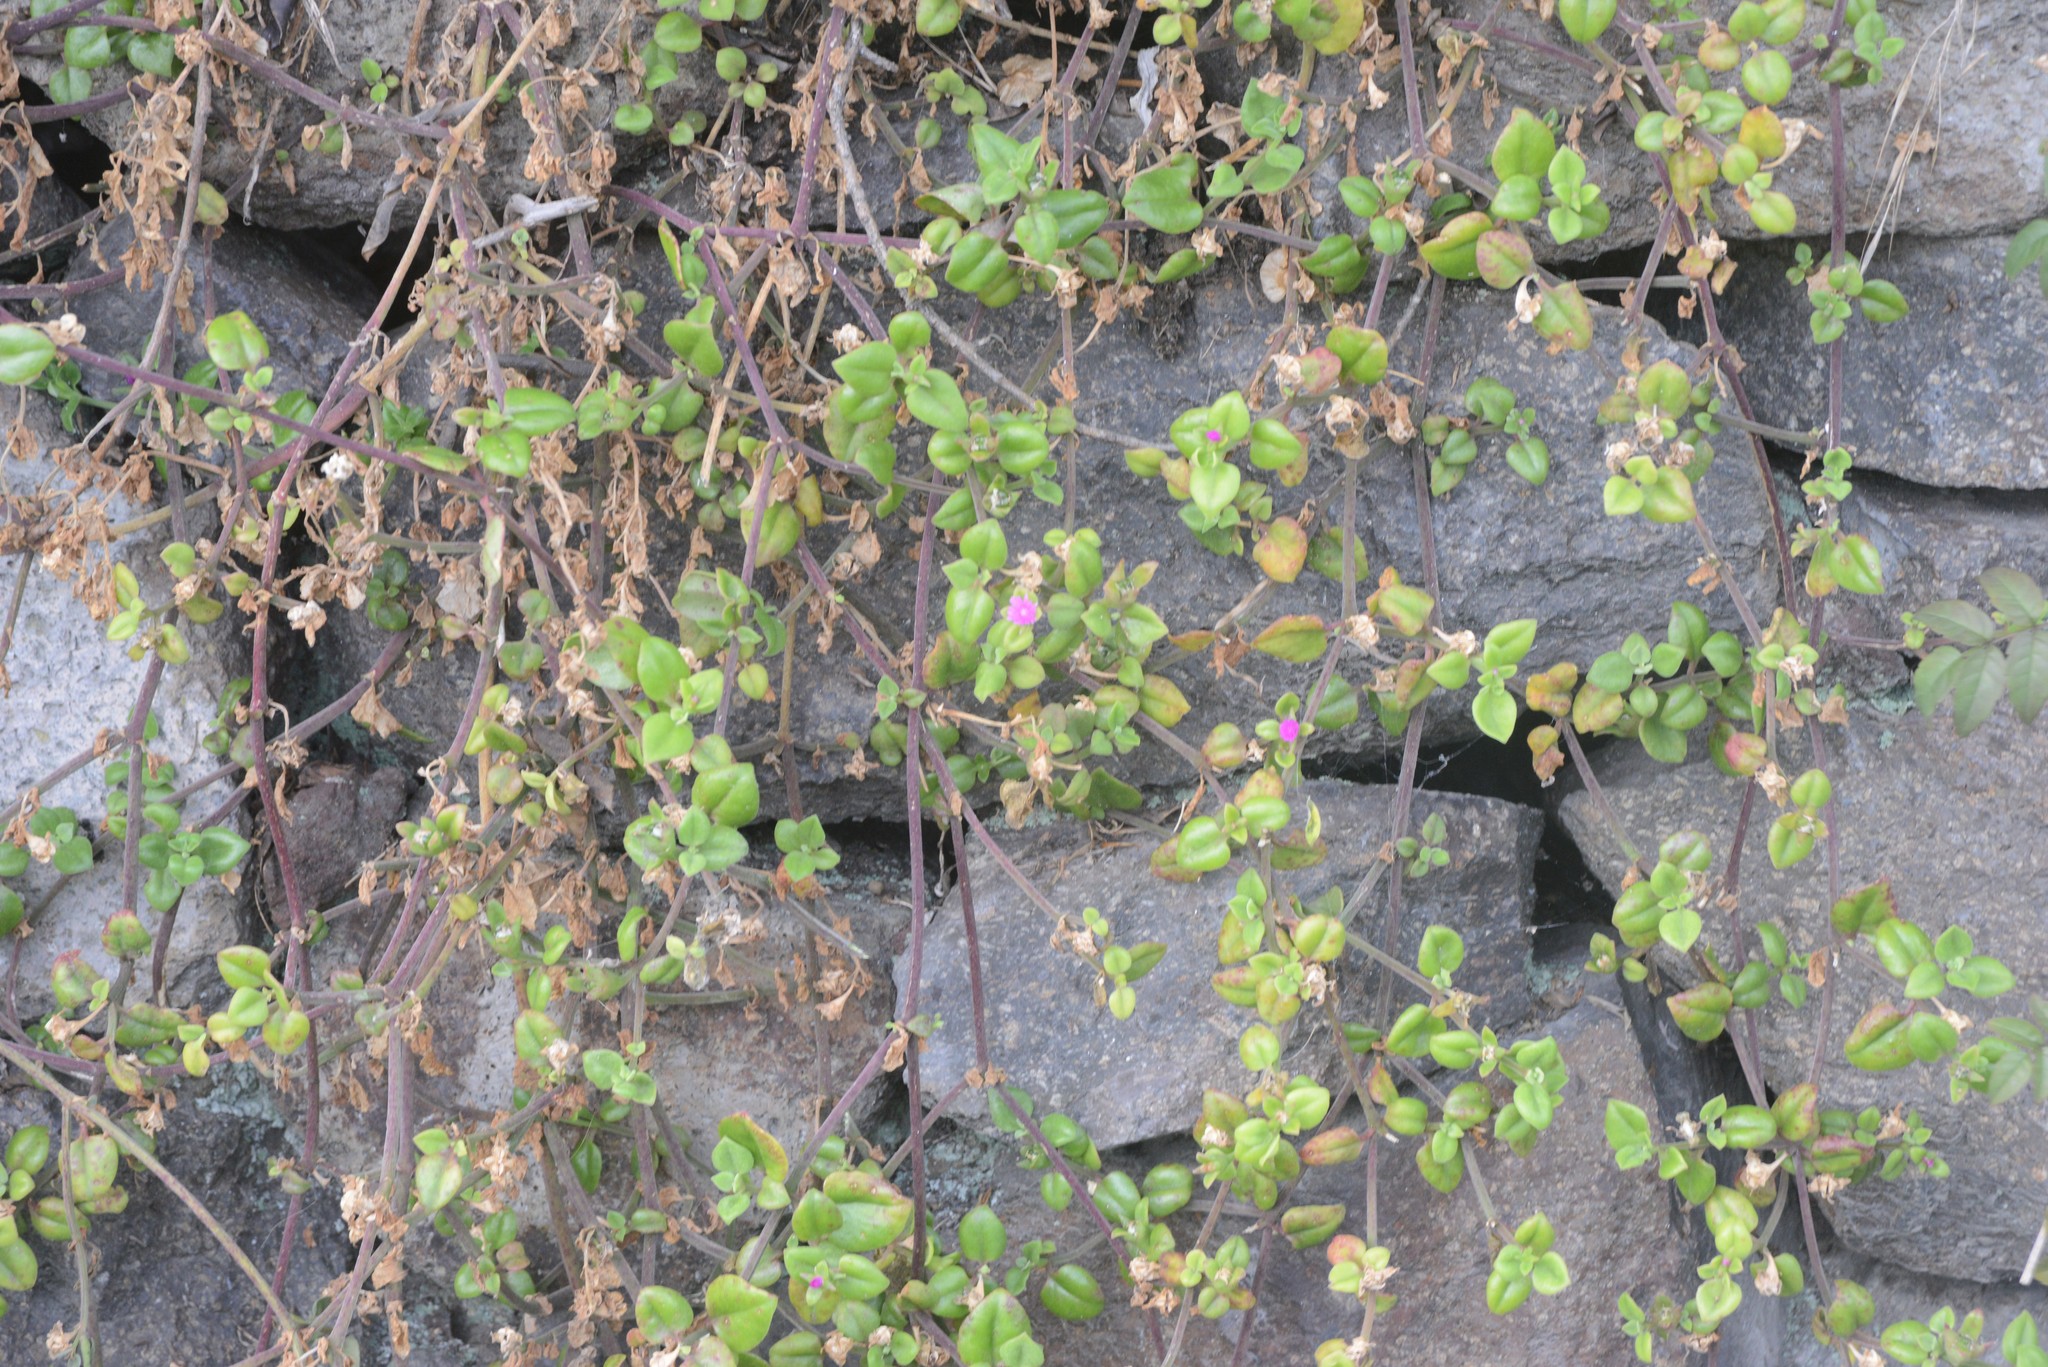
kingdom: Plantae
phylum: Tracheophyta
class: Magnoliopsida
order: Caryophyllales
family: Aizoaceae
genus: Mesembryanthemum
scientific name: Mesembryanthemum cordifolium
